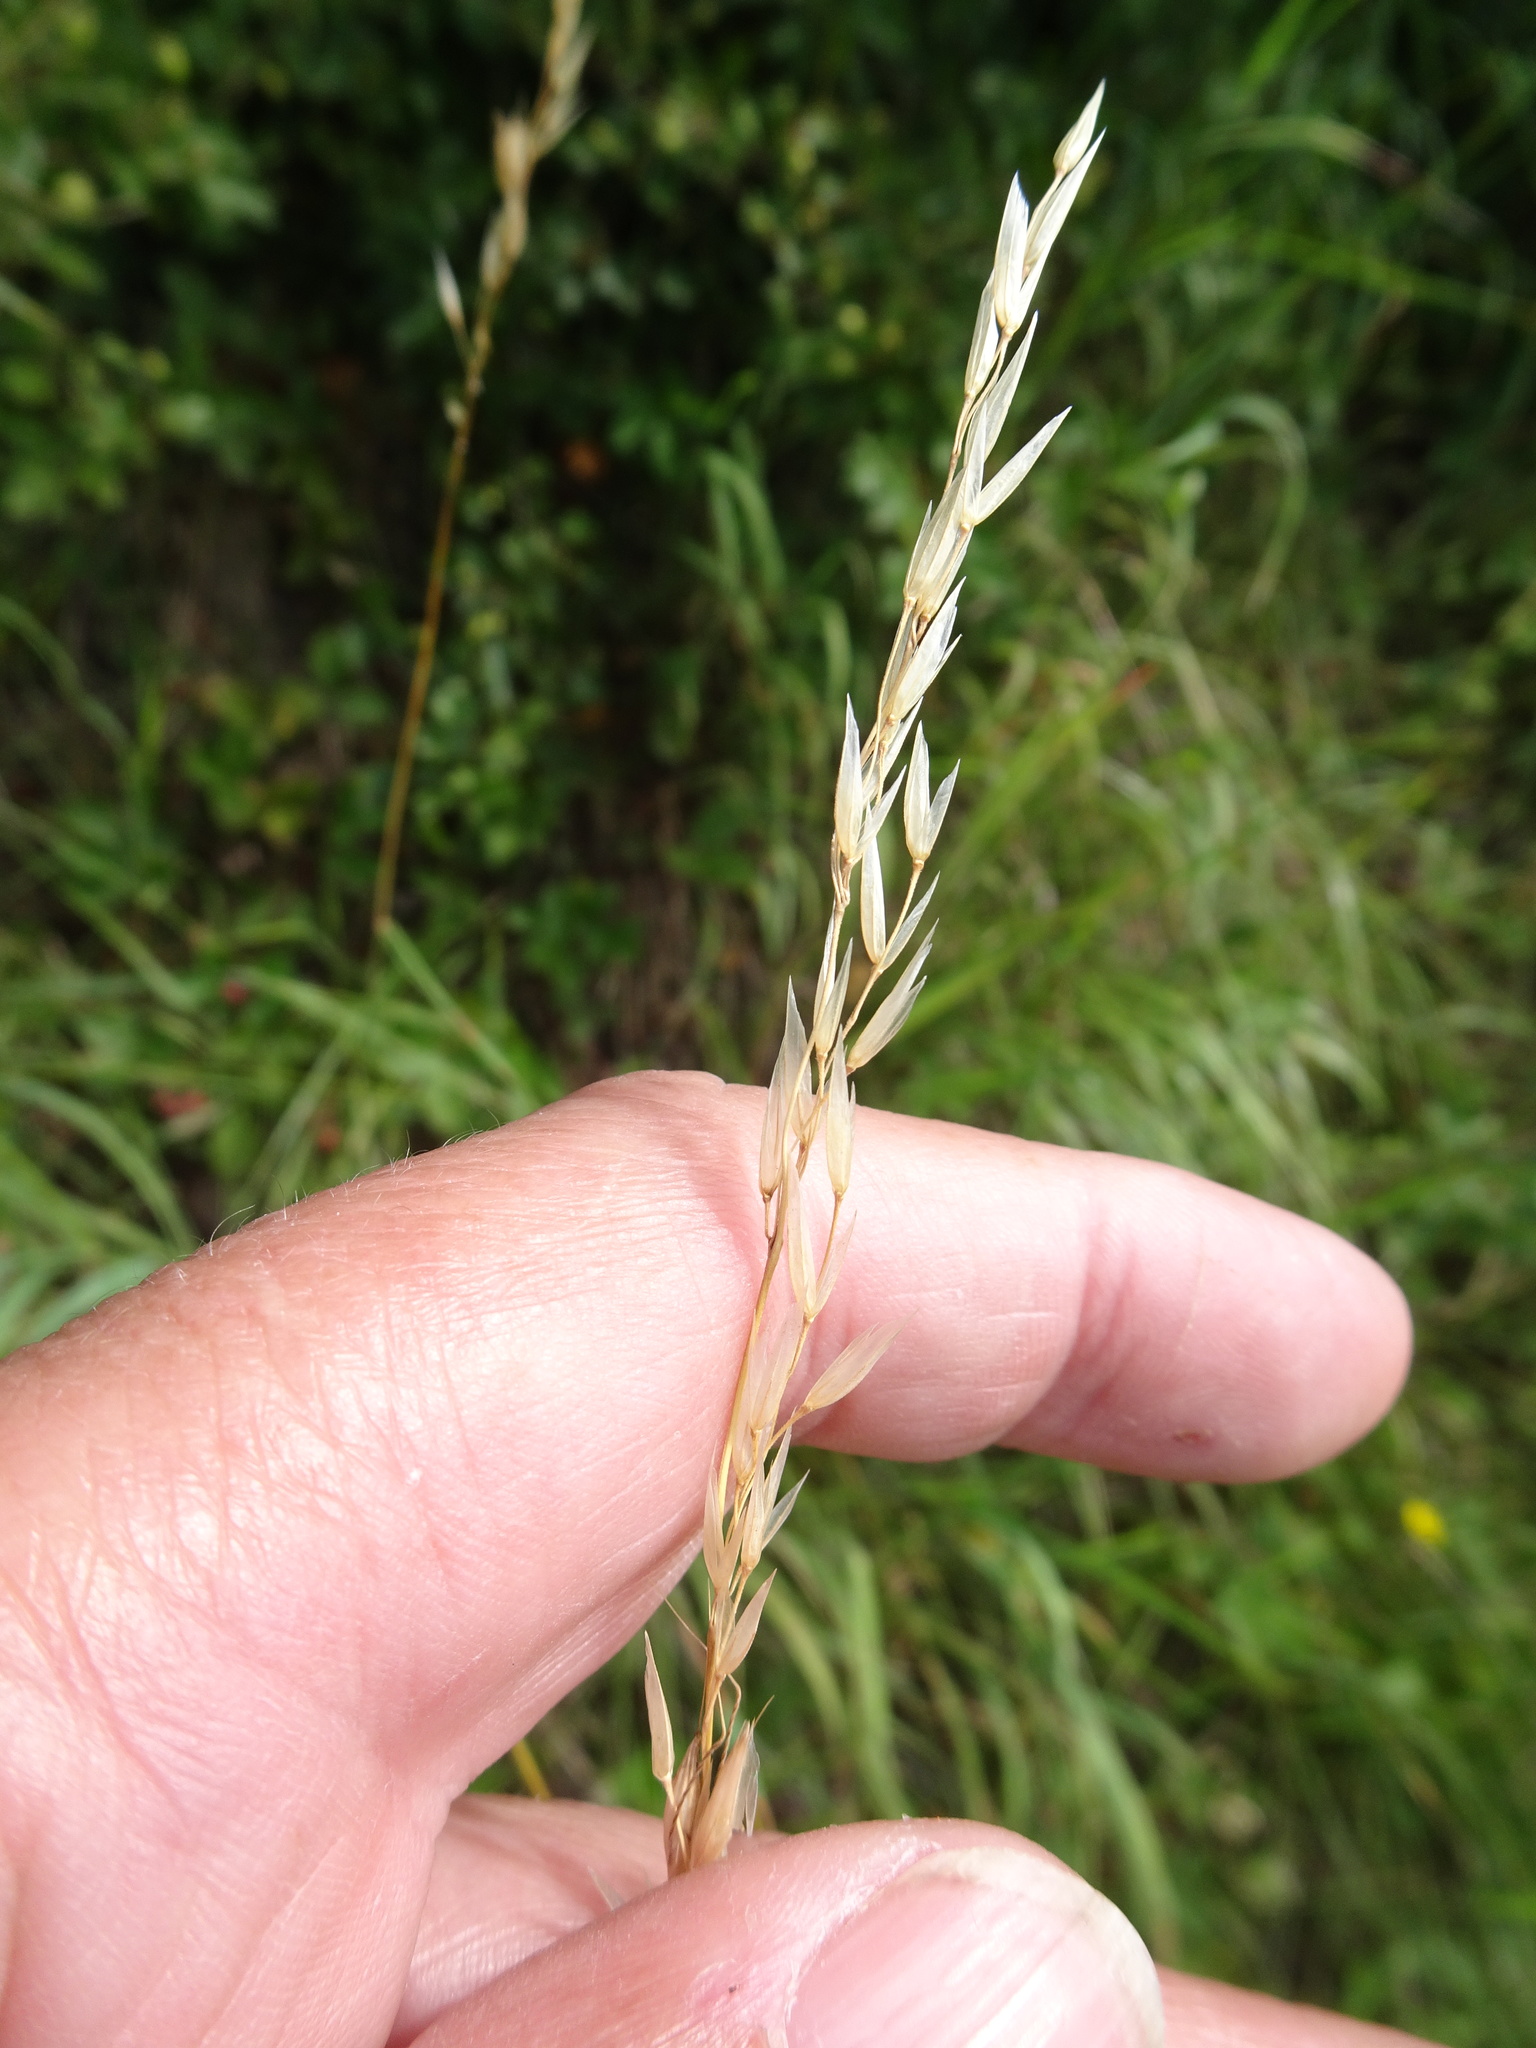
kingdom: Plantae
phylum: Tracheophyta
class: Liliopsida
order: Poales
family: Poaceae
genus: Arrhenatherum
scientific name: Arrhenatherum elatius
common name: Tall oatgrass
